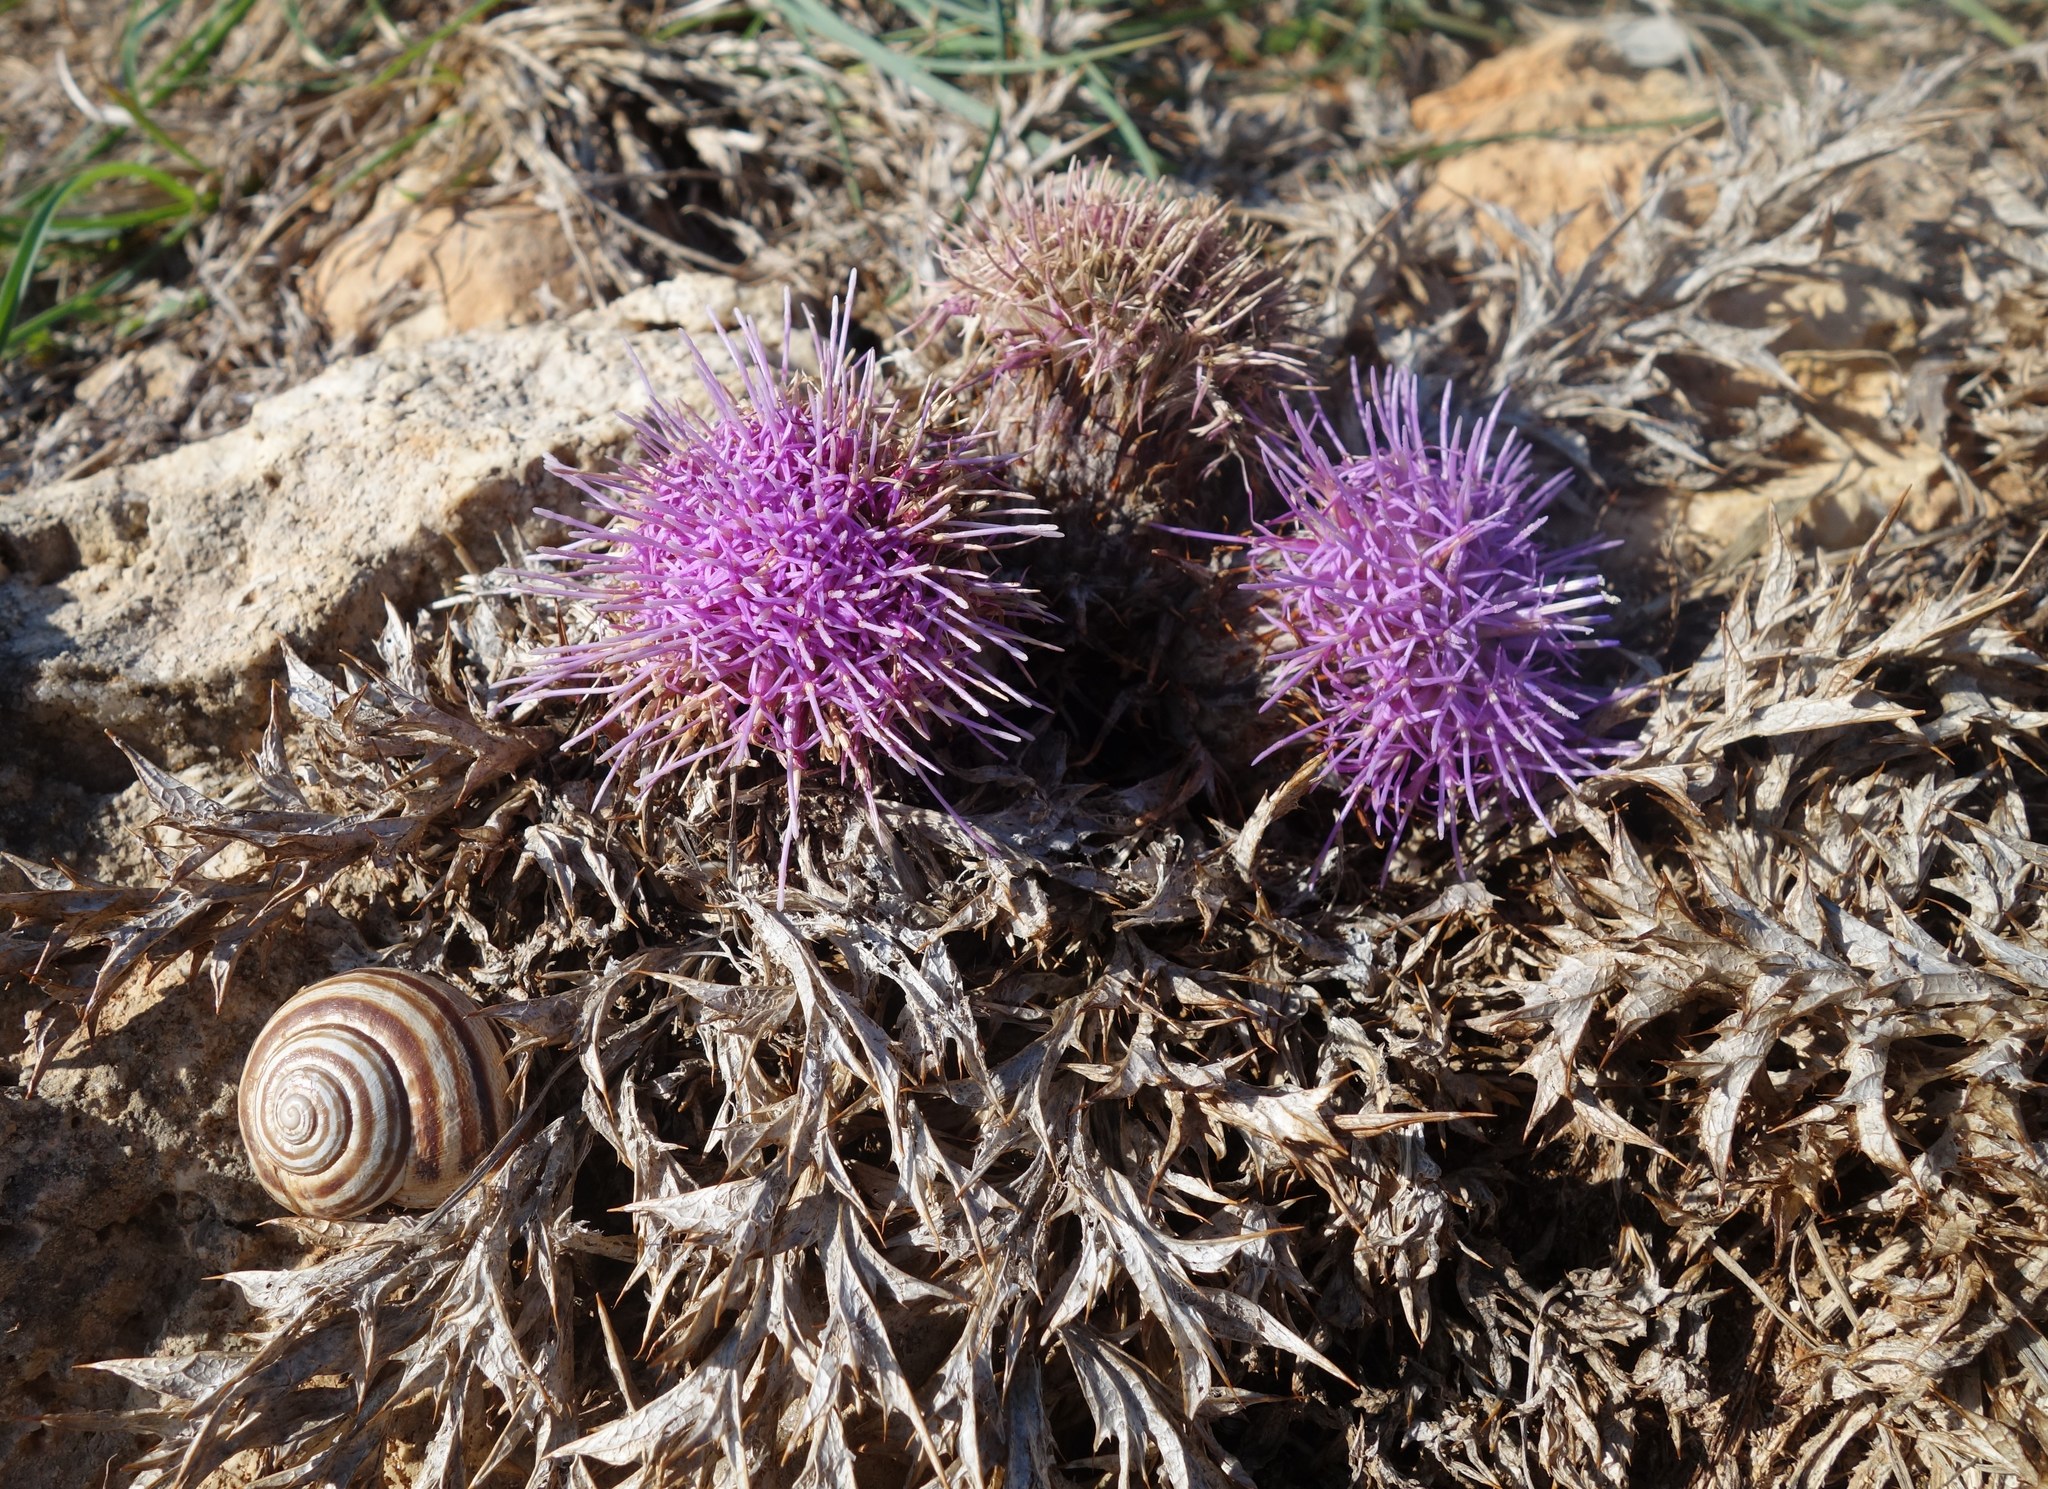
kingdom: Plantae
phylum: Tracheophyta
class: Magnoliopsida
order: Asterales
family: Asteraceae
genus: Chamaeleon
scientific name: Chamaeleon gummifer
